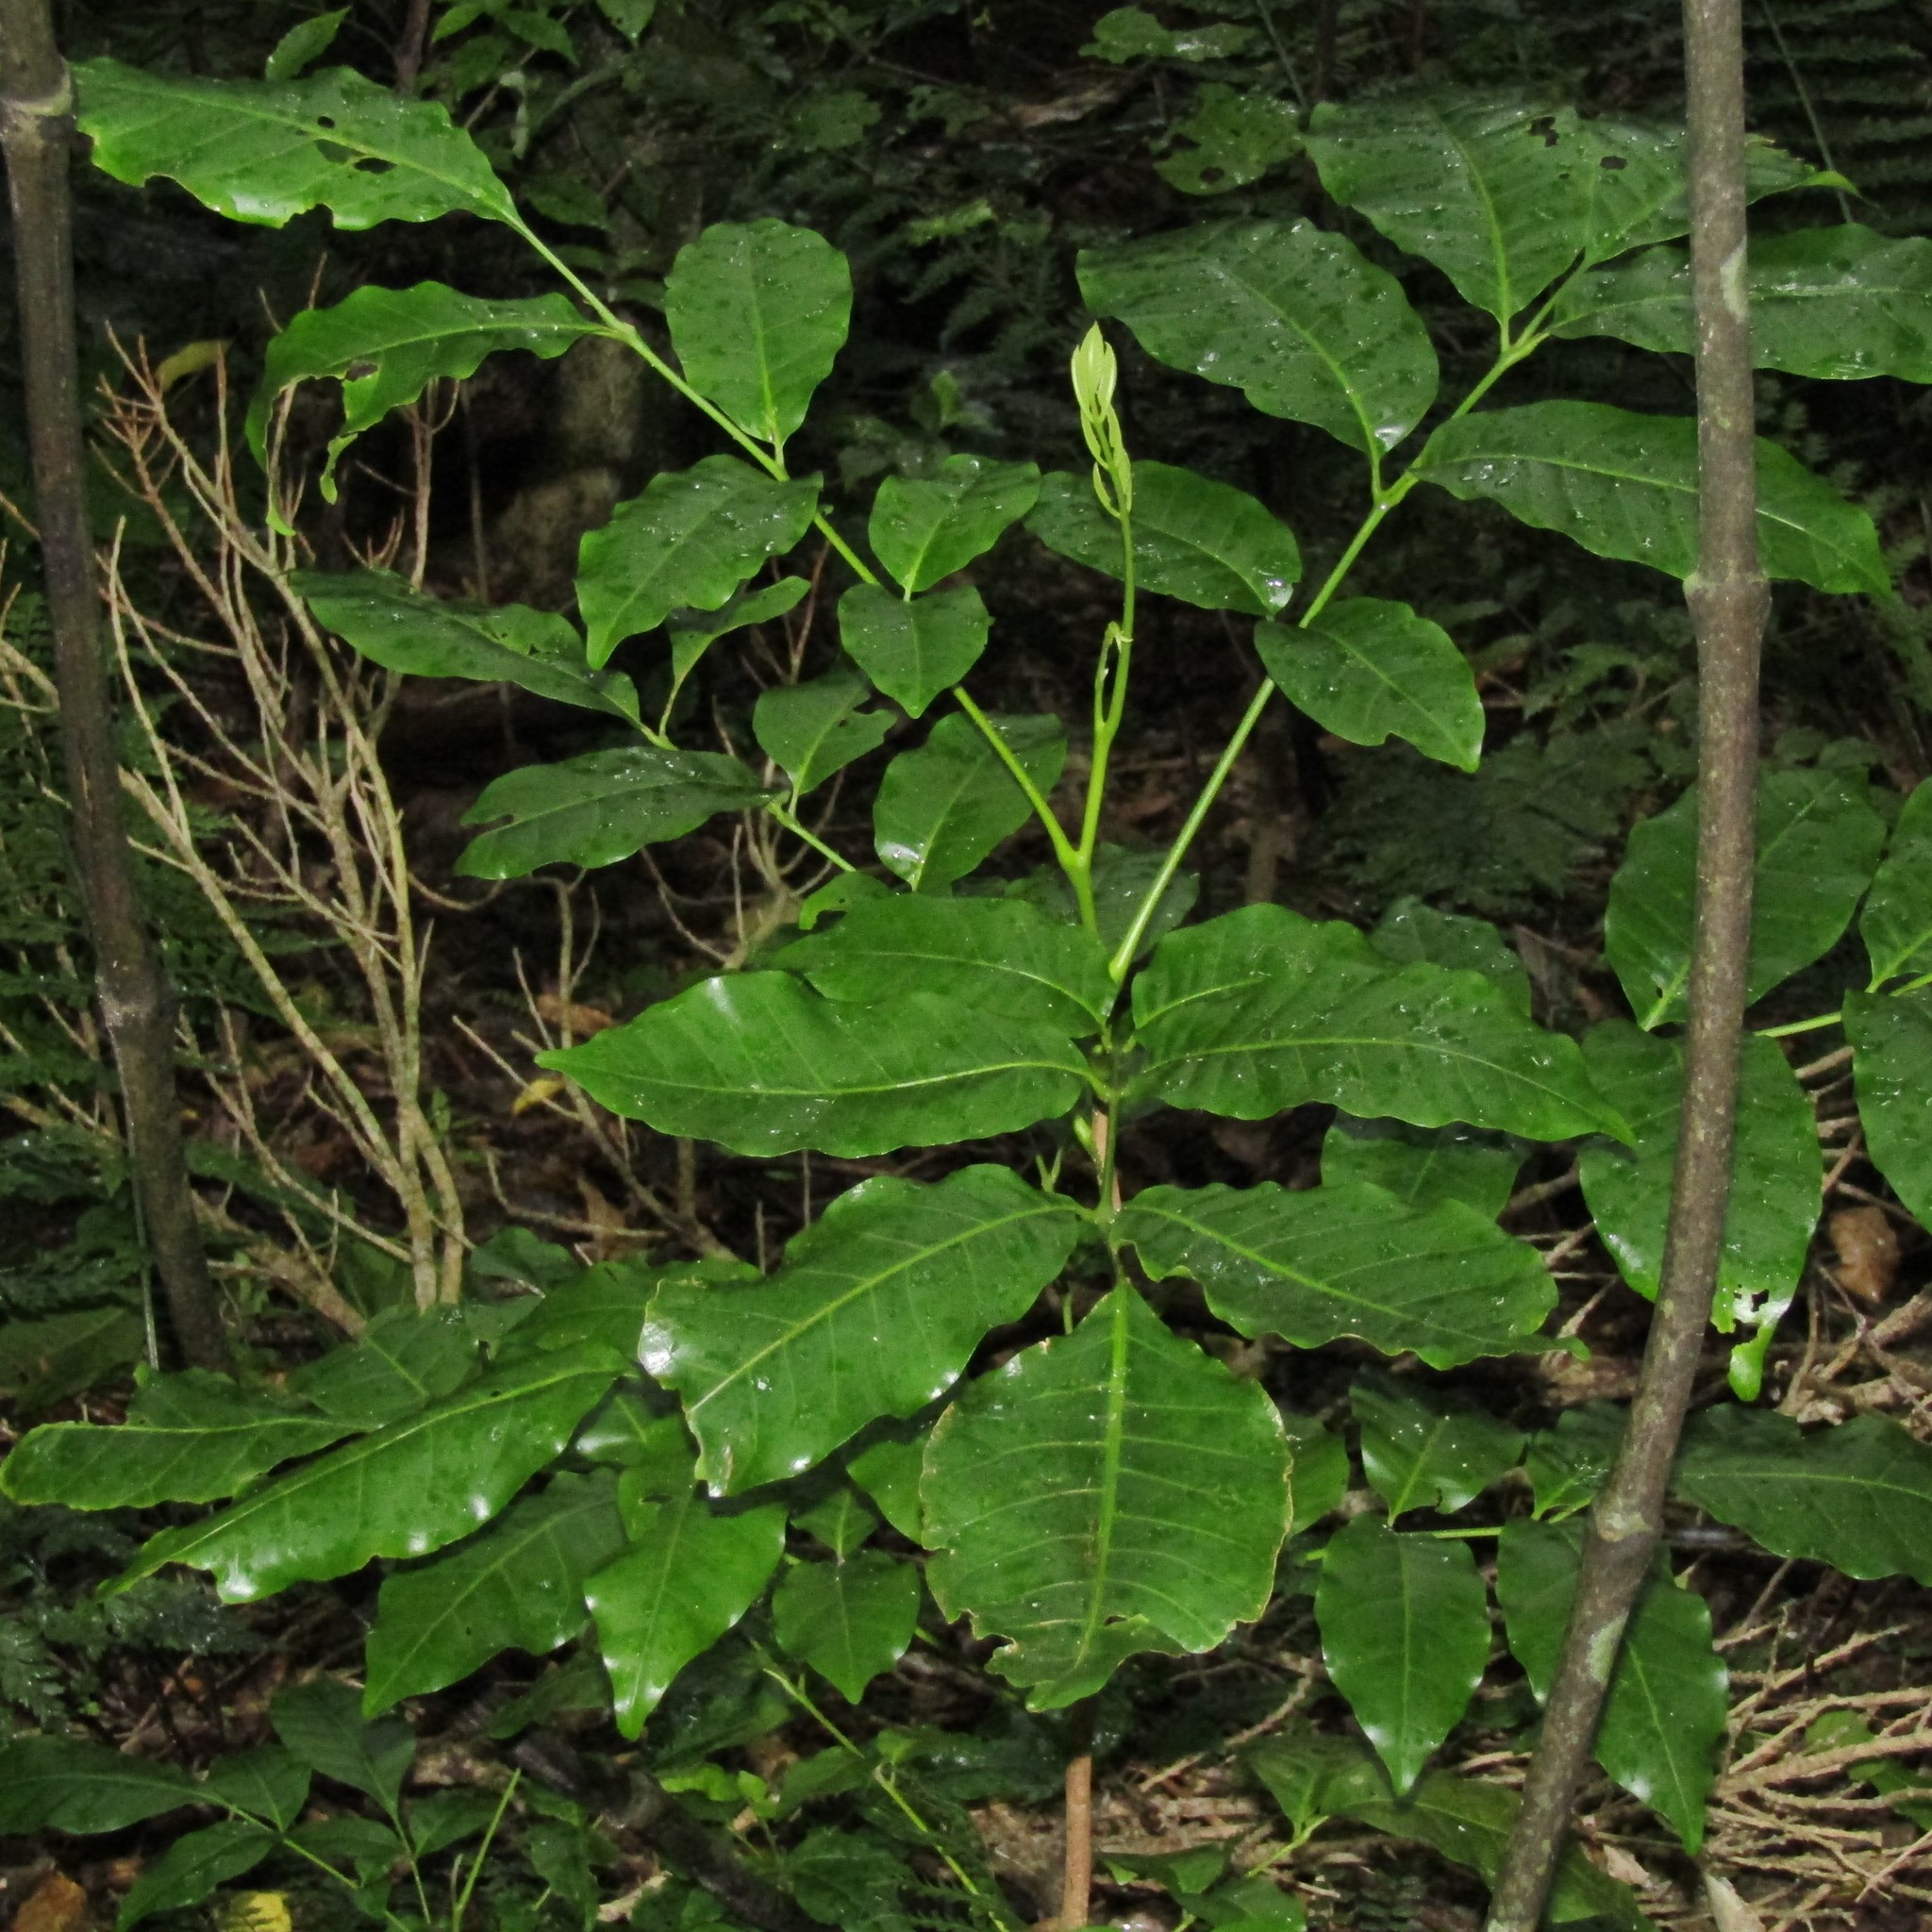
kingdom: Plantae
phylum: Tracheophyta
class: Magnoliopsida
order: Sapindales
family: Meliaceae
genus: Didymocheton
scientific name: Didymocheton spectabilis
